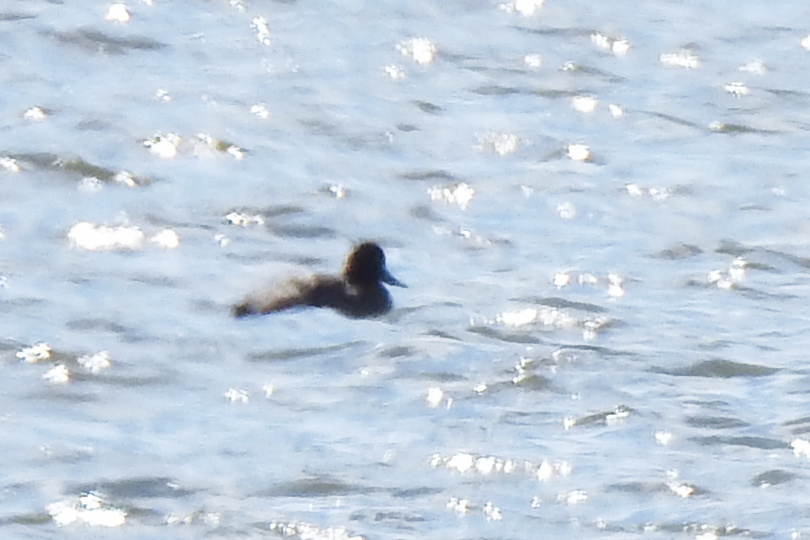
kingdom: Animalia
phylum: Chordata
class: Aves
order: Anseriformes
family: Anatidae
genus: Aythya
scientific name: Aythya
